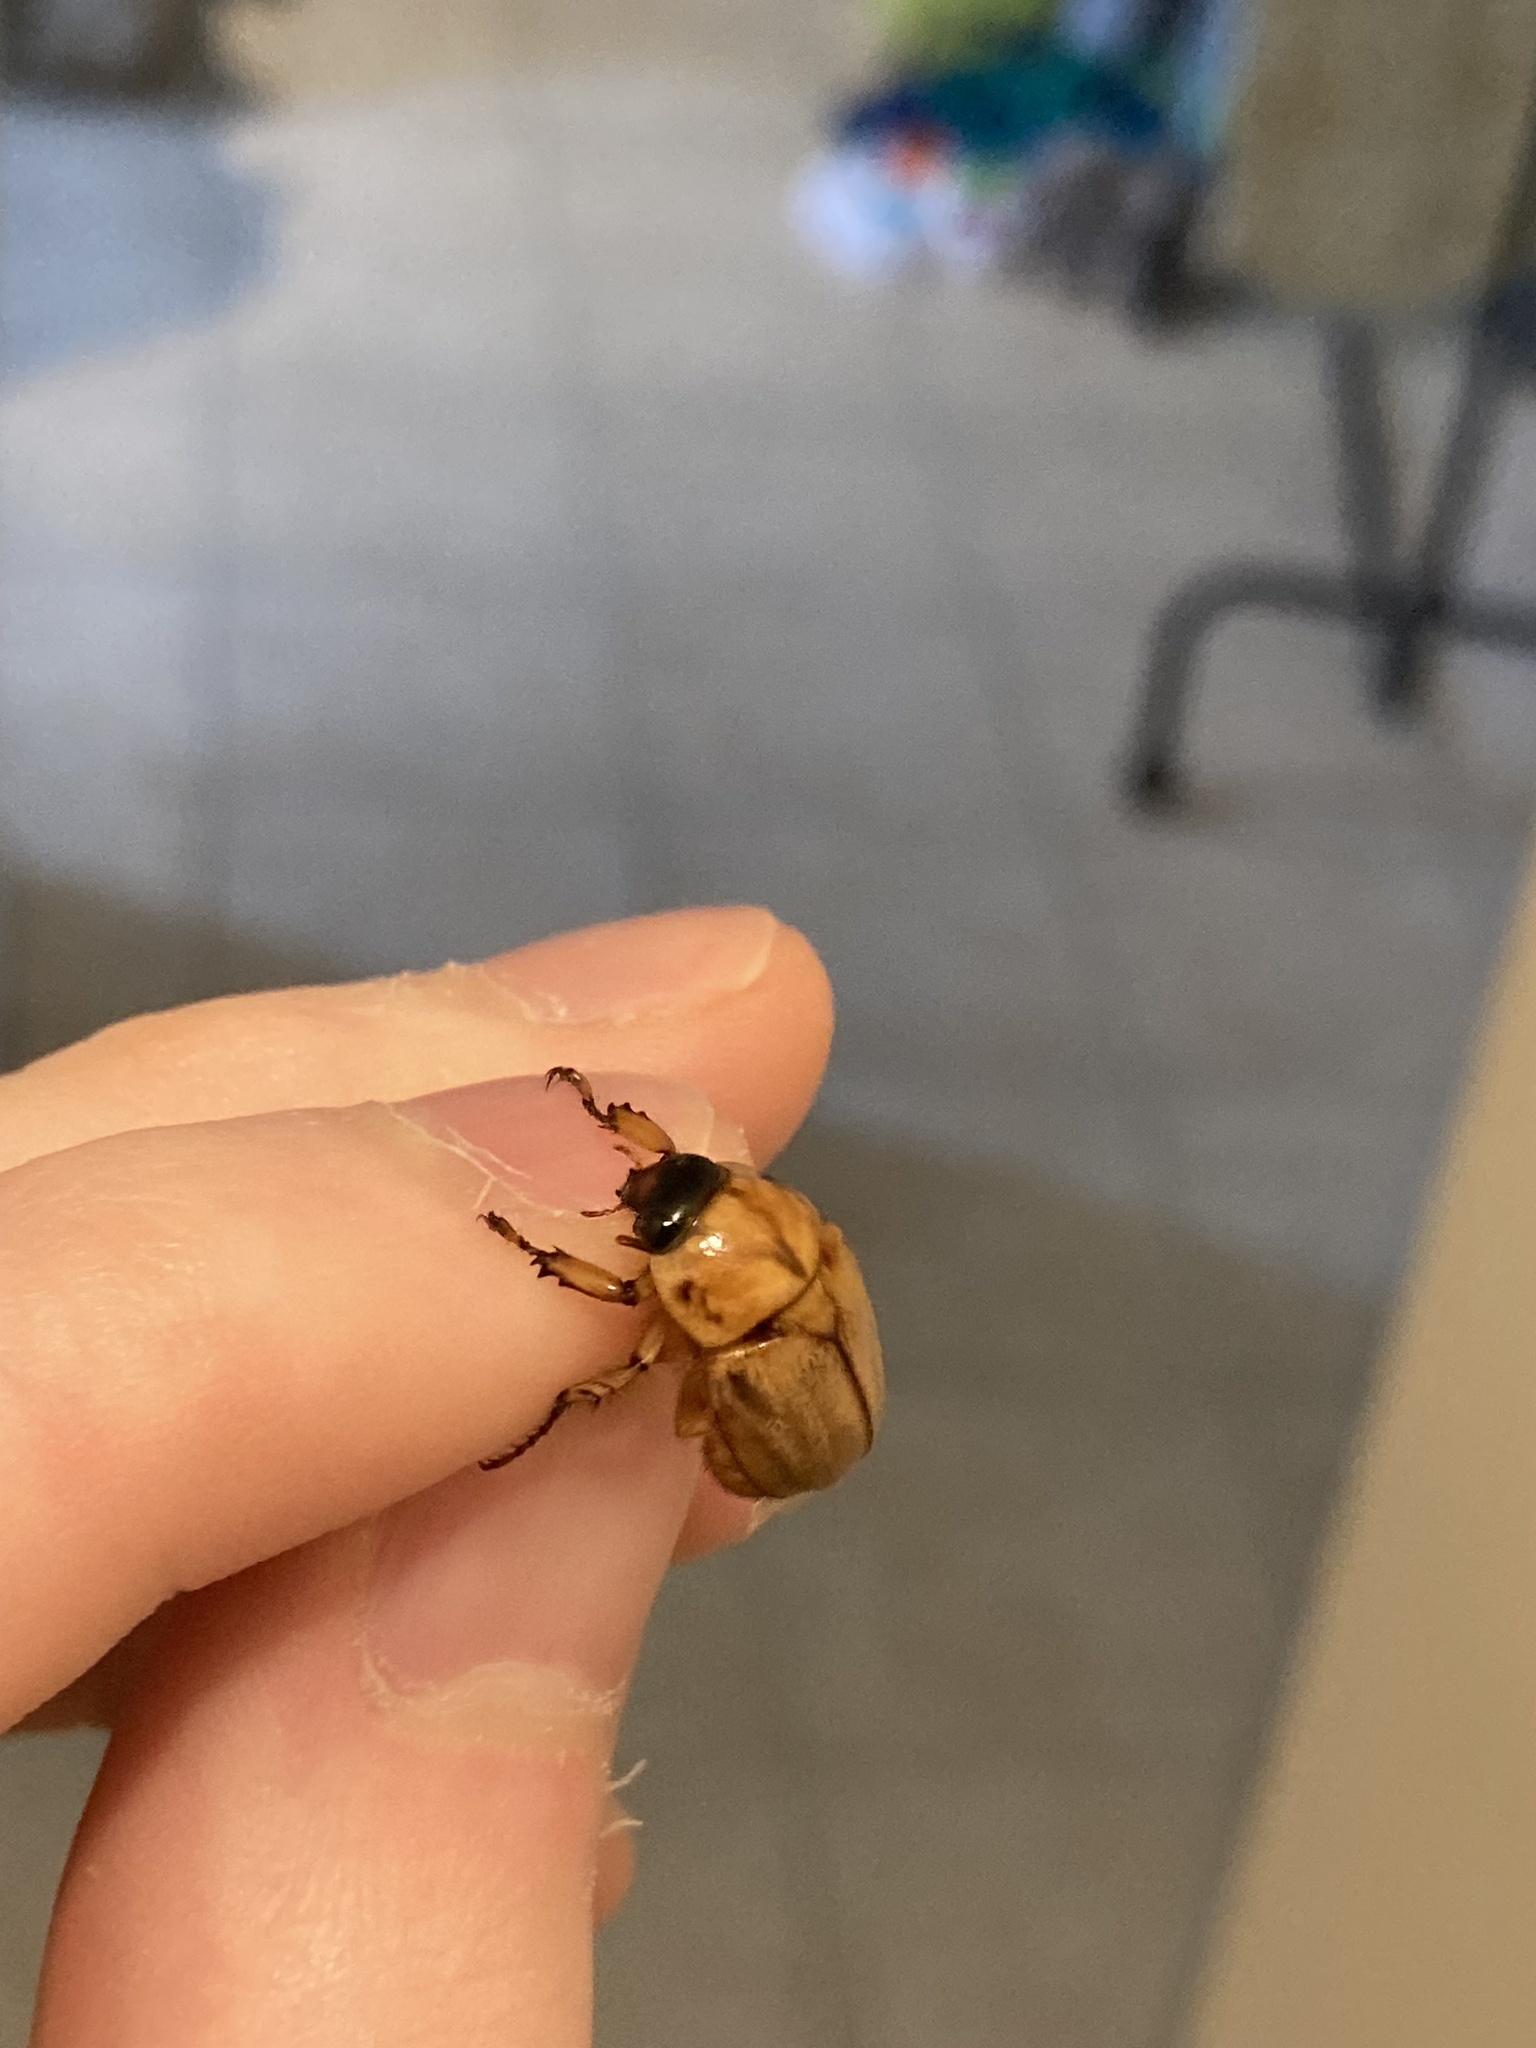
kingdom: Animalia
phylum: Arthropoda
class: Insecta
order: Coleoptera
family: Scarabaeidae
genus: Cyclocephala
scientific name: Cyclocephala signaticollis
